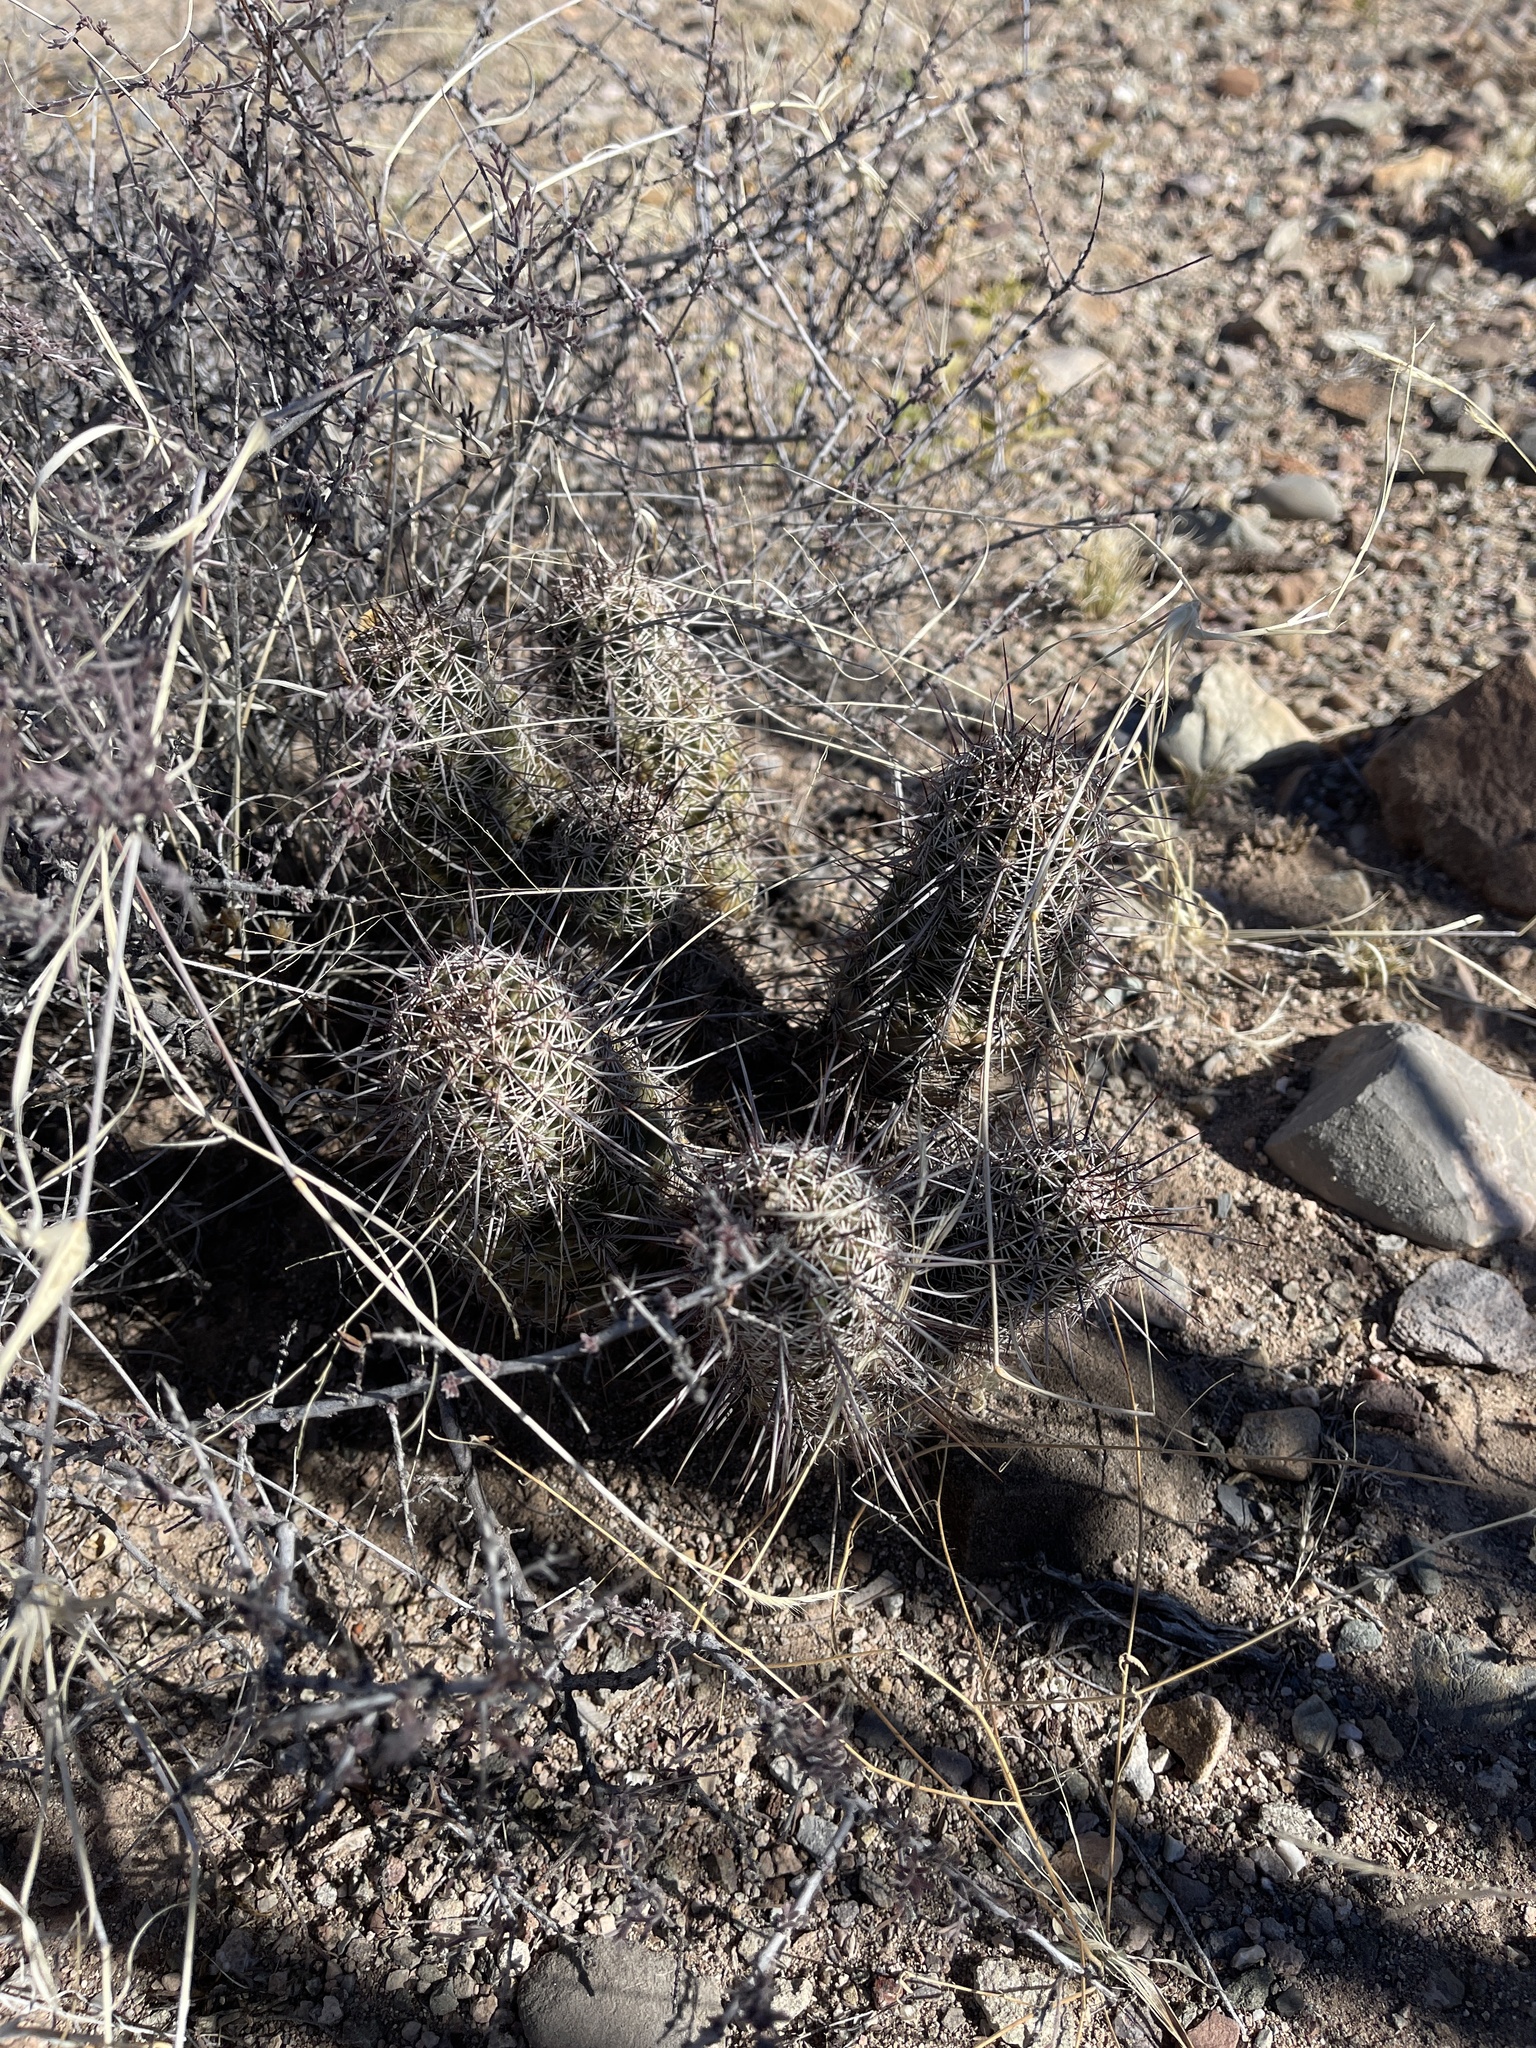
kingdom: Plantae
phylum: Tracheophyta
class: Magnoliopsida
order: Caryophyllales
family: Cactaceae
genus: Echinocereus
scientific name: Echinocereus fasciculatus
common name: Bundle hedgehog
